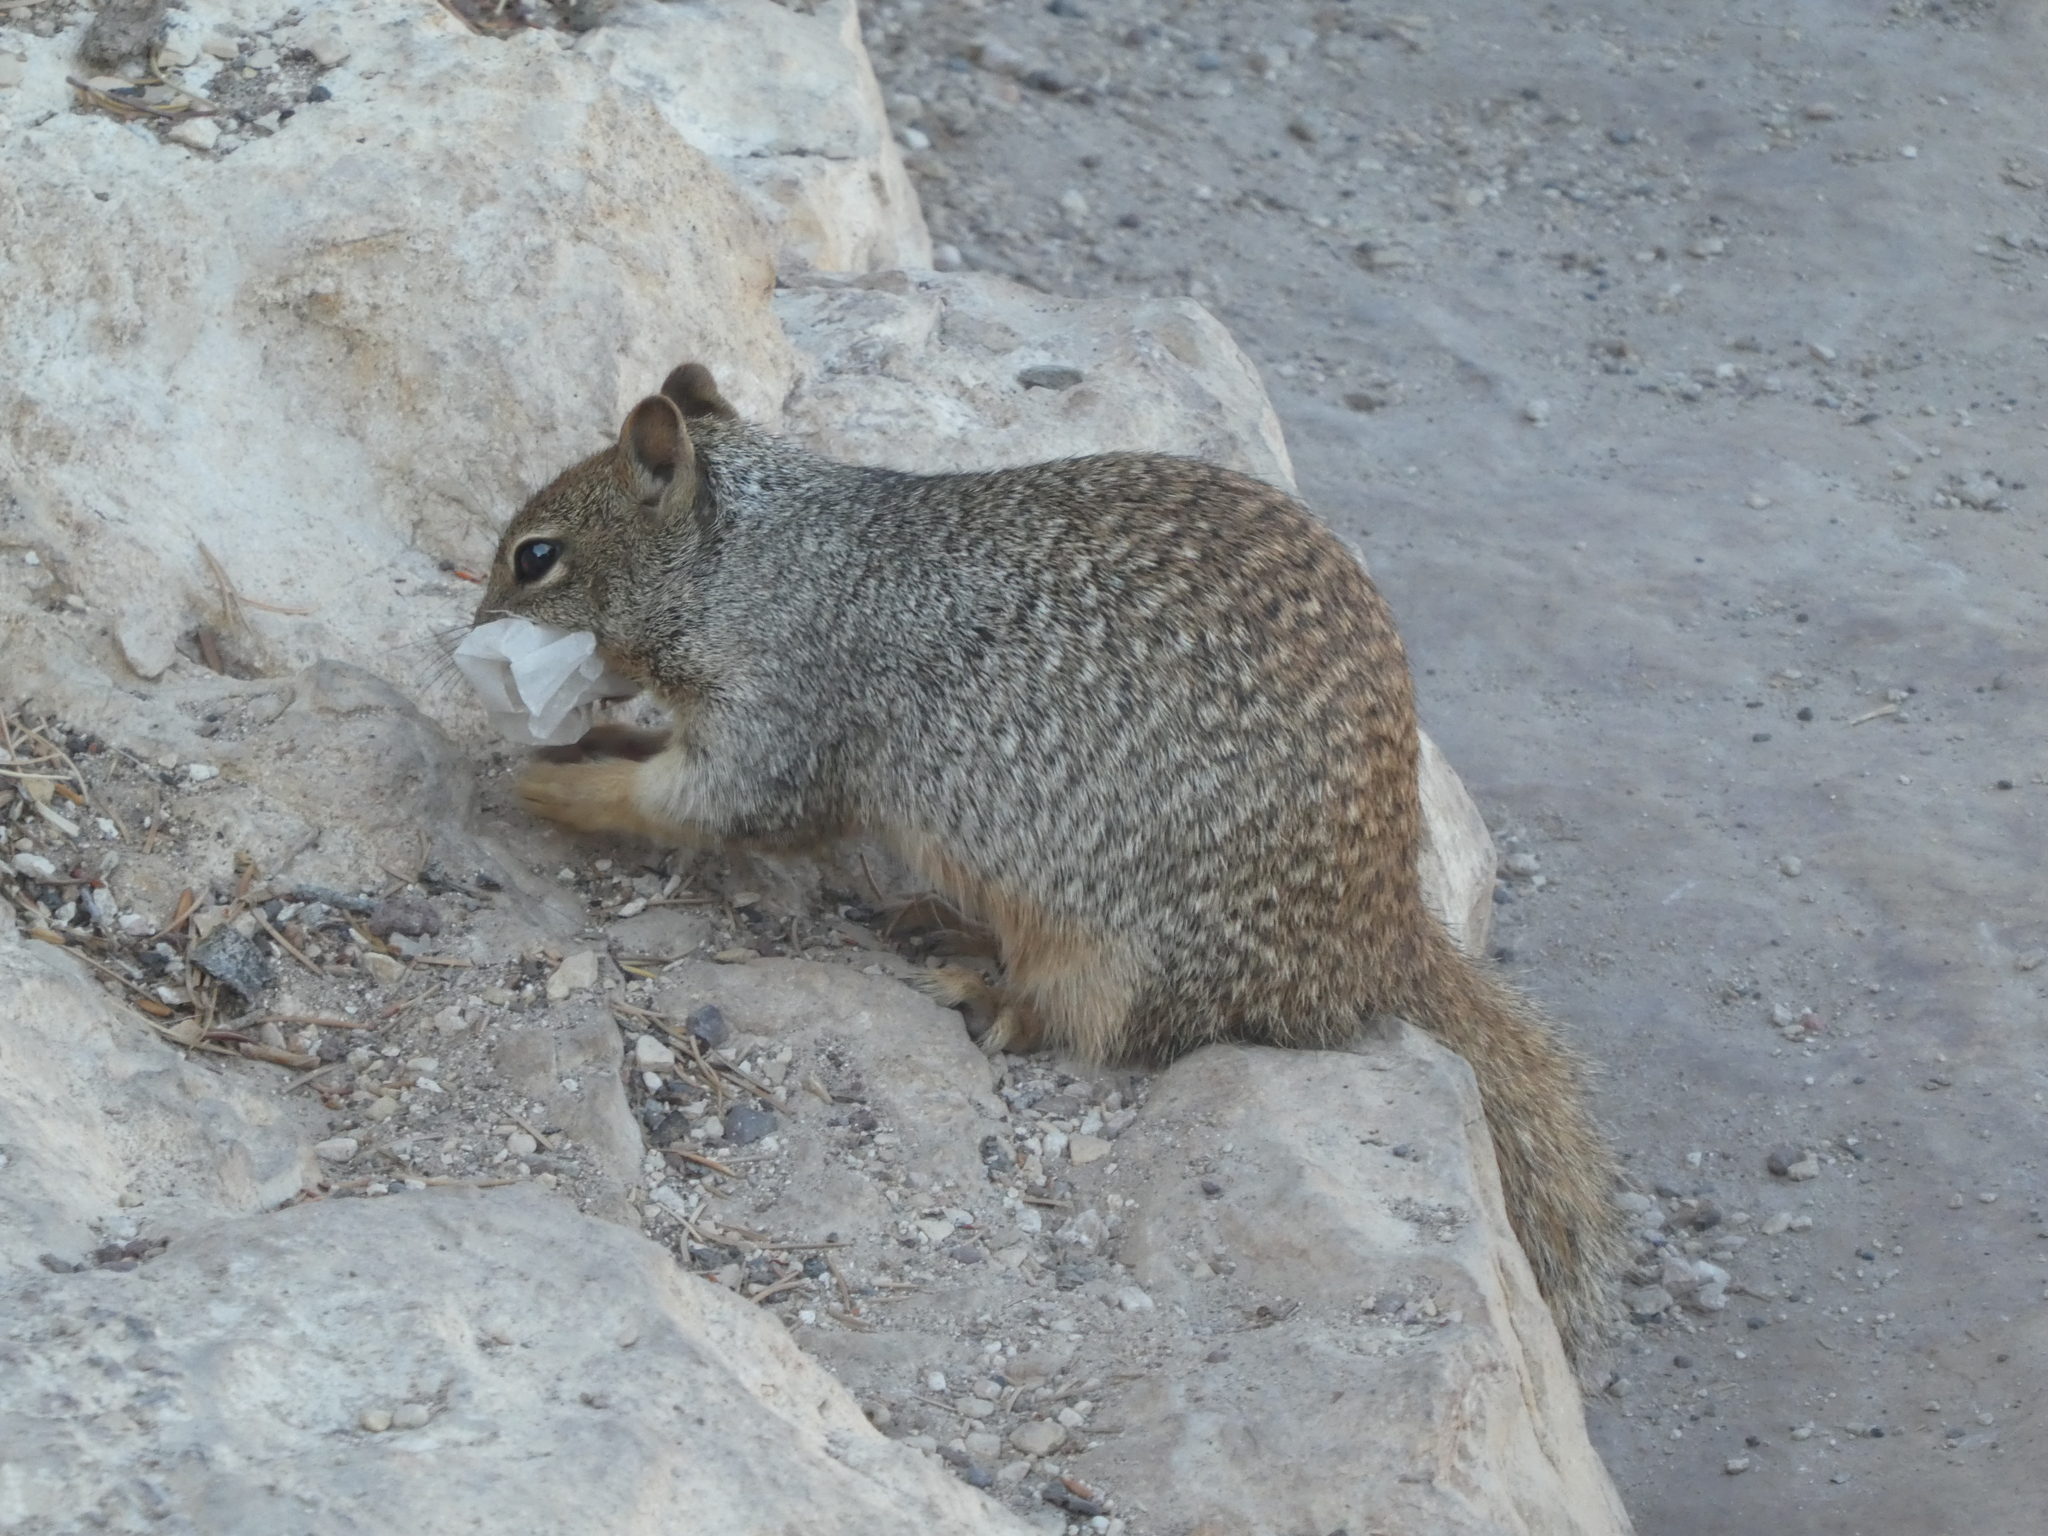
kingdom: Animalia
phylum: Chordata
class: Mammalia
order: Rodentia
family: Sciuridae
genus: Otospermophilus
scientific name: Otospermophilus variegatus
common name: Rock squirrel
